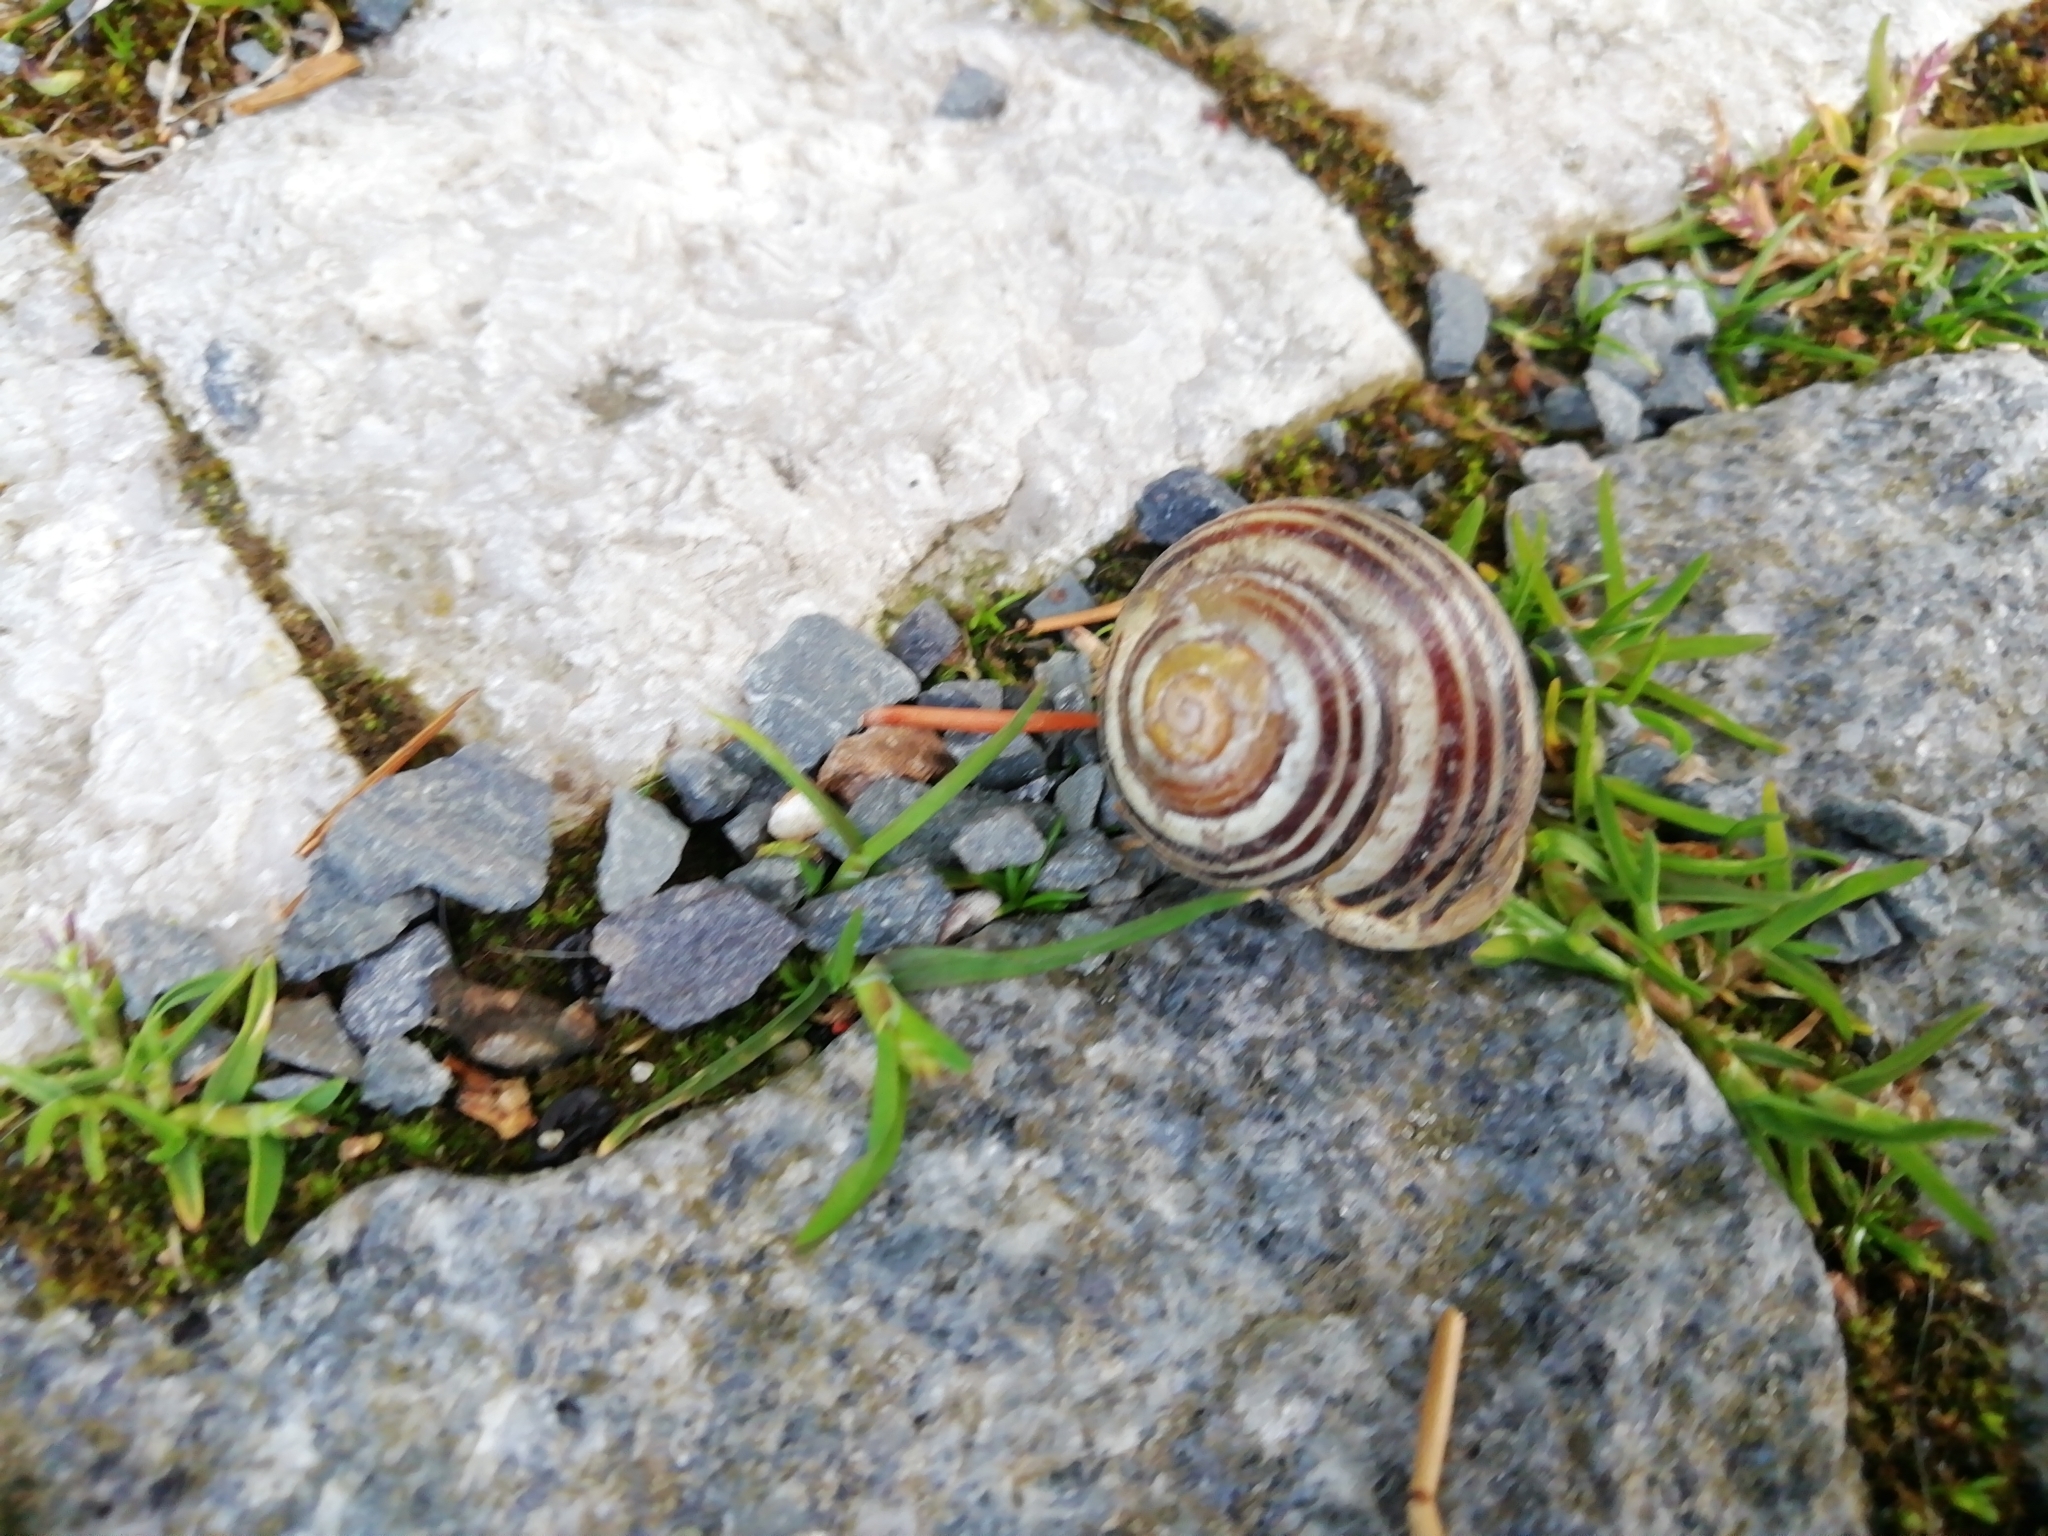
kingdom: Animalia
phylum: Mollusca
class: Gastropoda
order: Stylommatophora
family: Helicidae
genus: Cepaea
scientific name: Cepaea hortensis
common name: White-lip gardensnail
